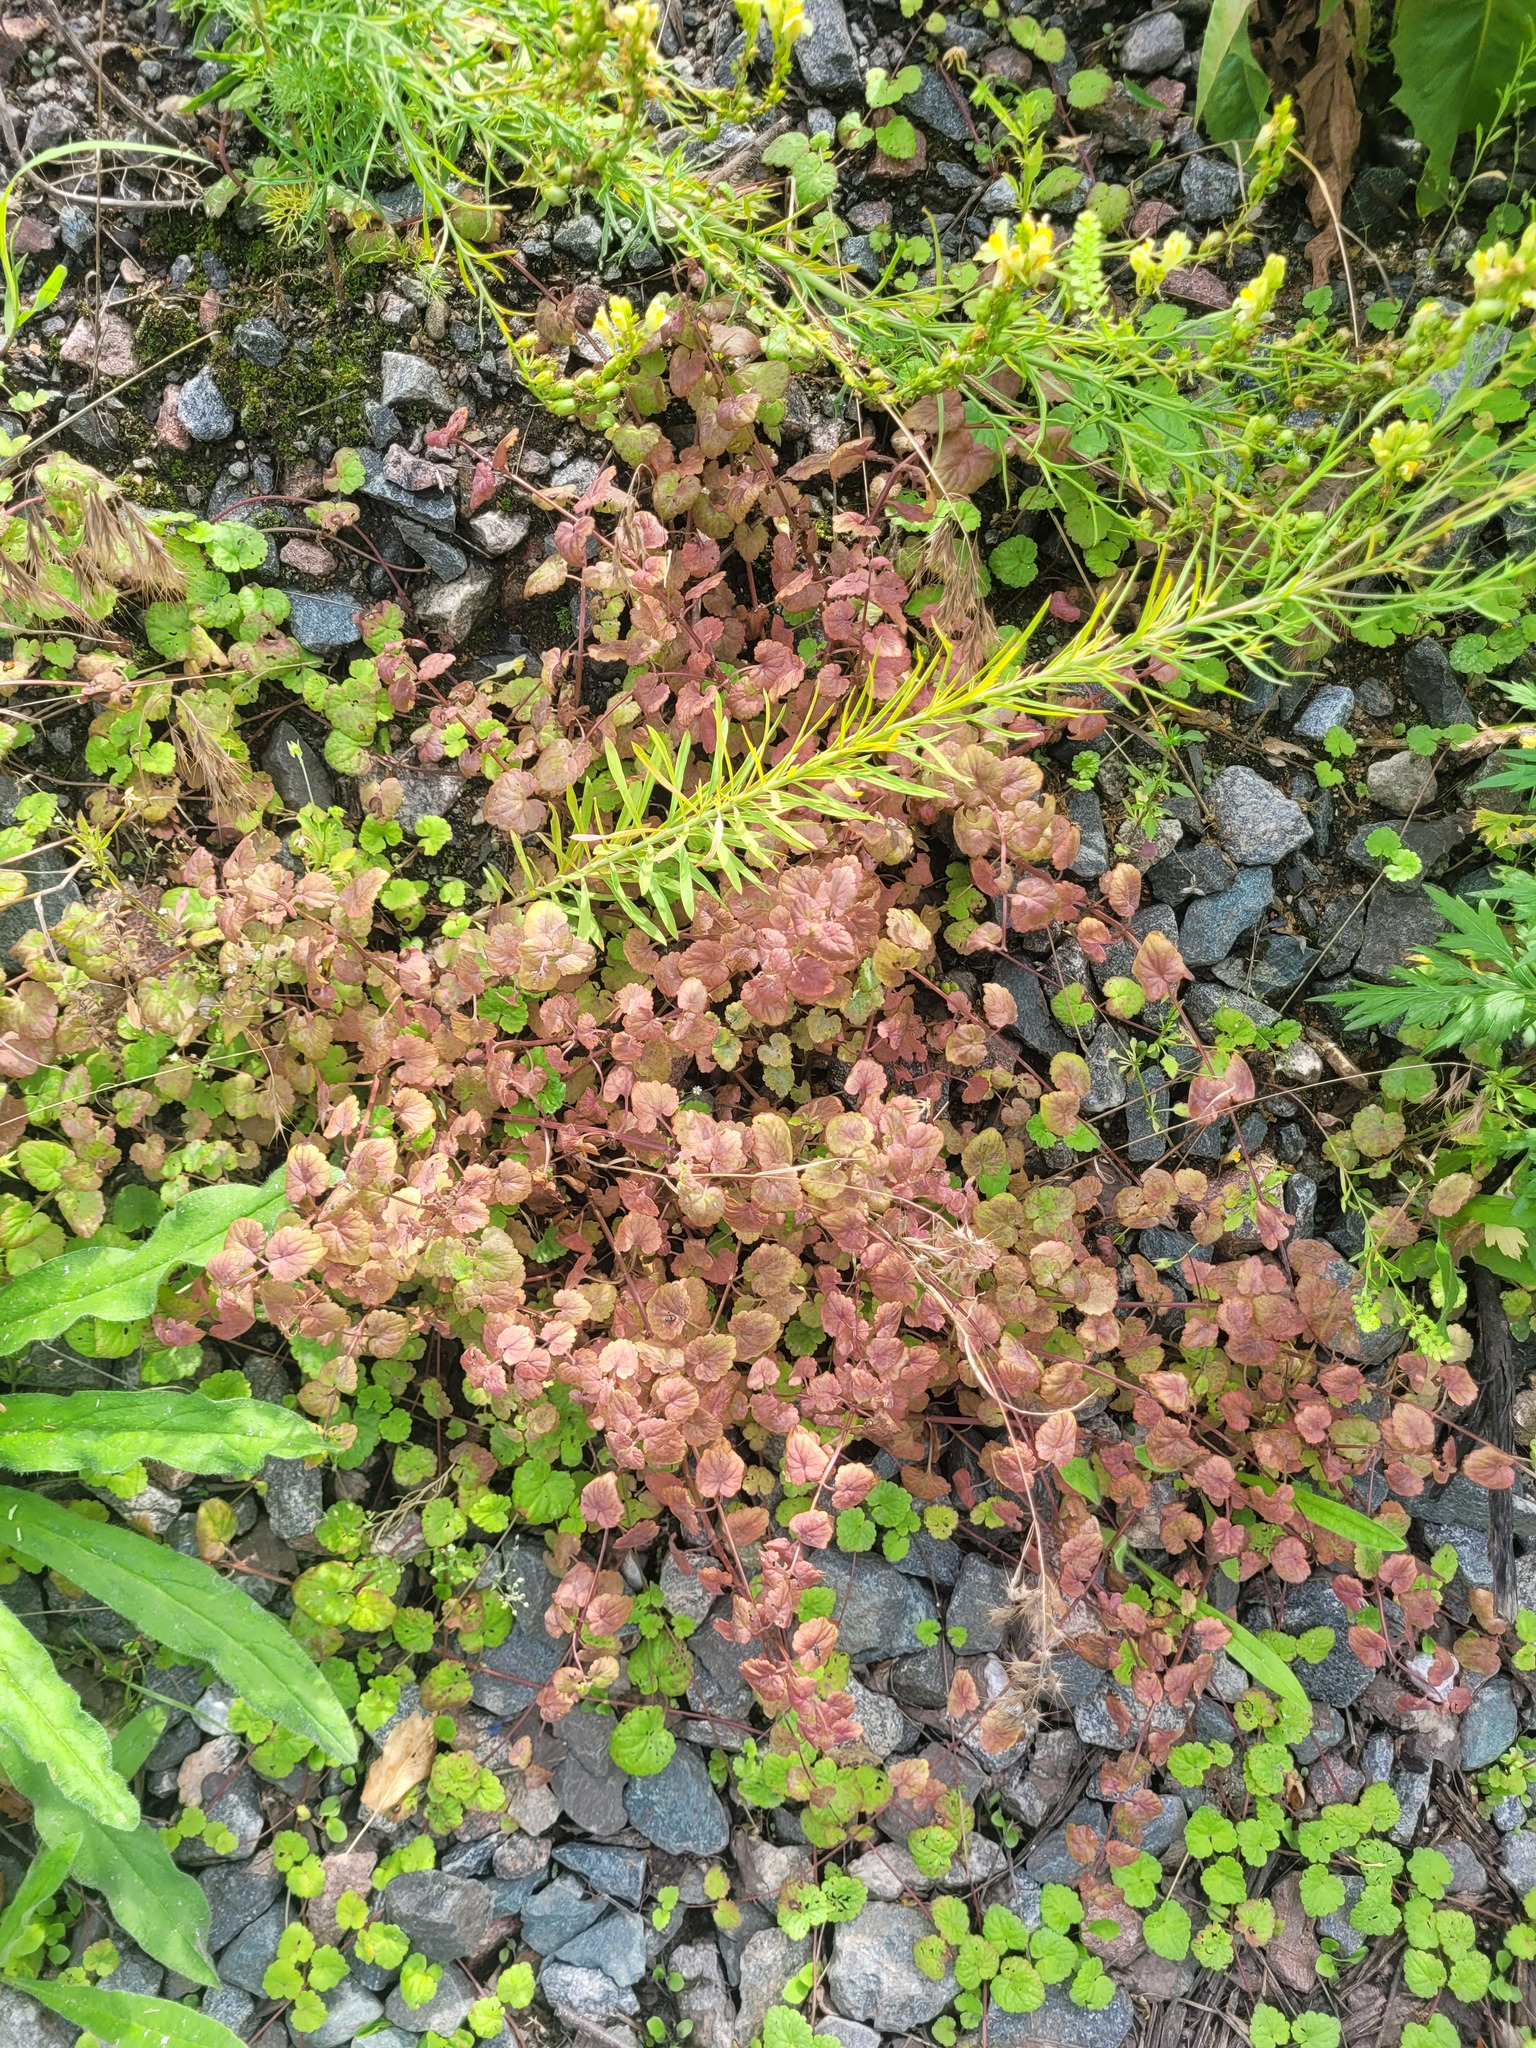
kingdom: Plantae
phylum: Tracheophyta
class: Magnoliopsida
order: Lamiales
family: Lamiaceae
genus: Glechoma
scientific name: Glechoma hederacea
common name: Ground ivy
